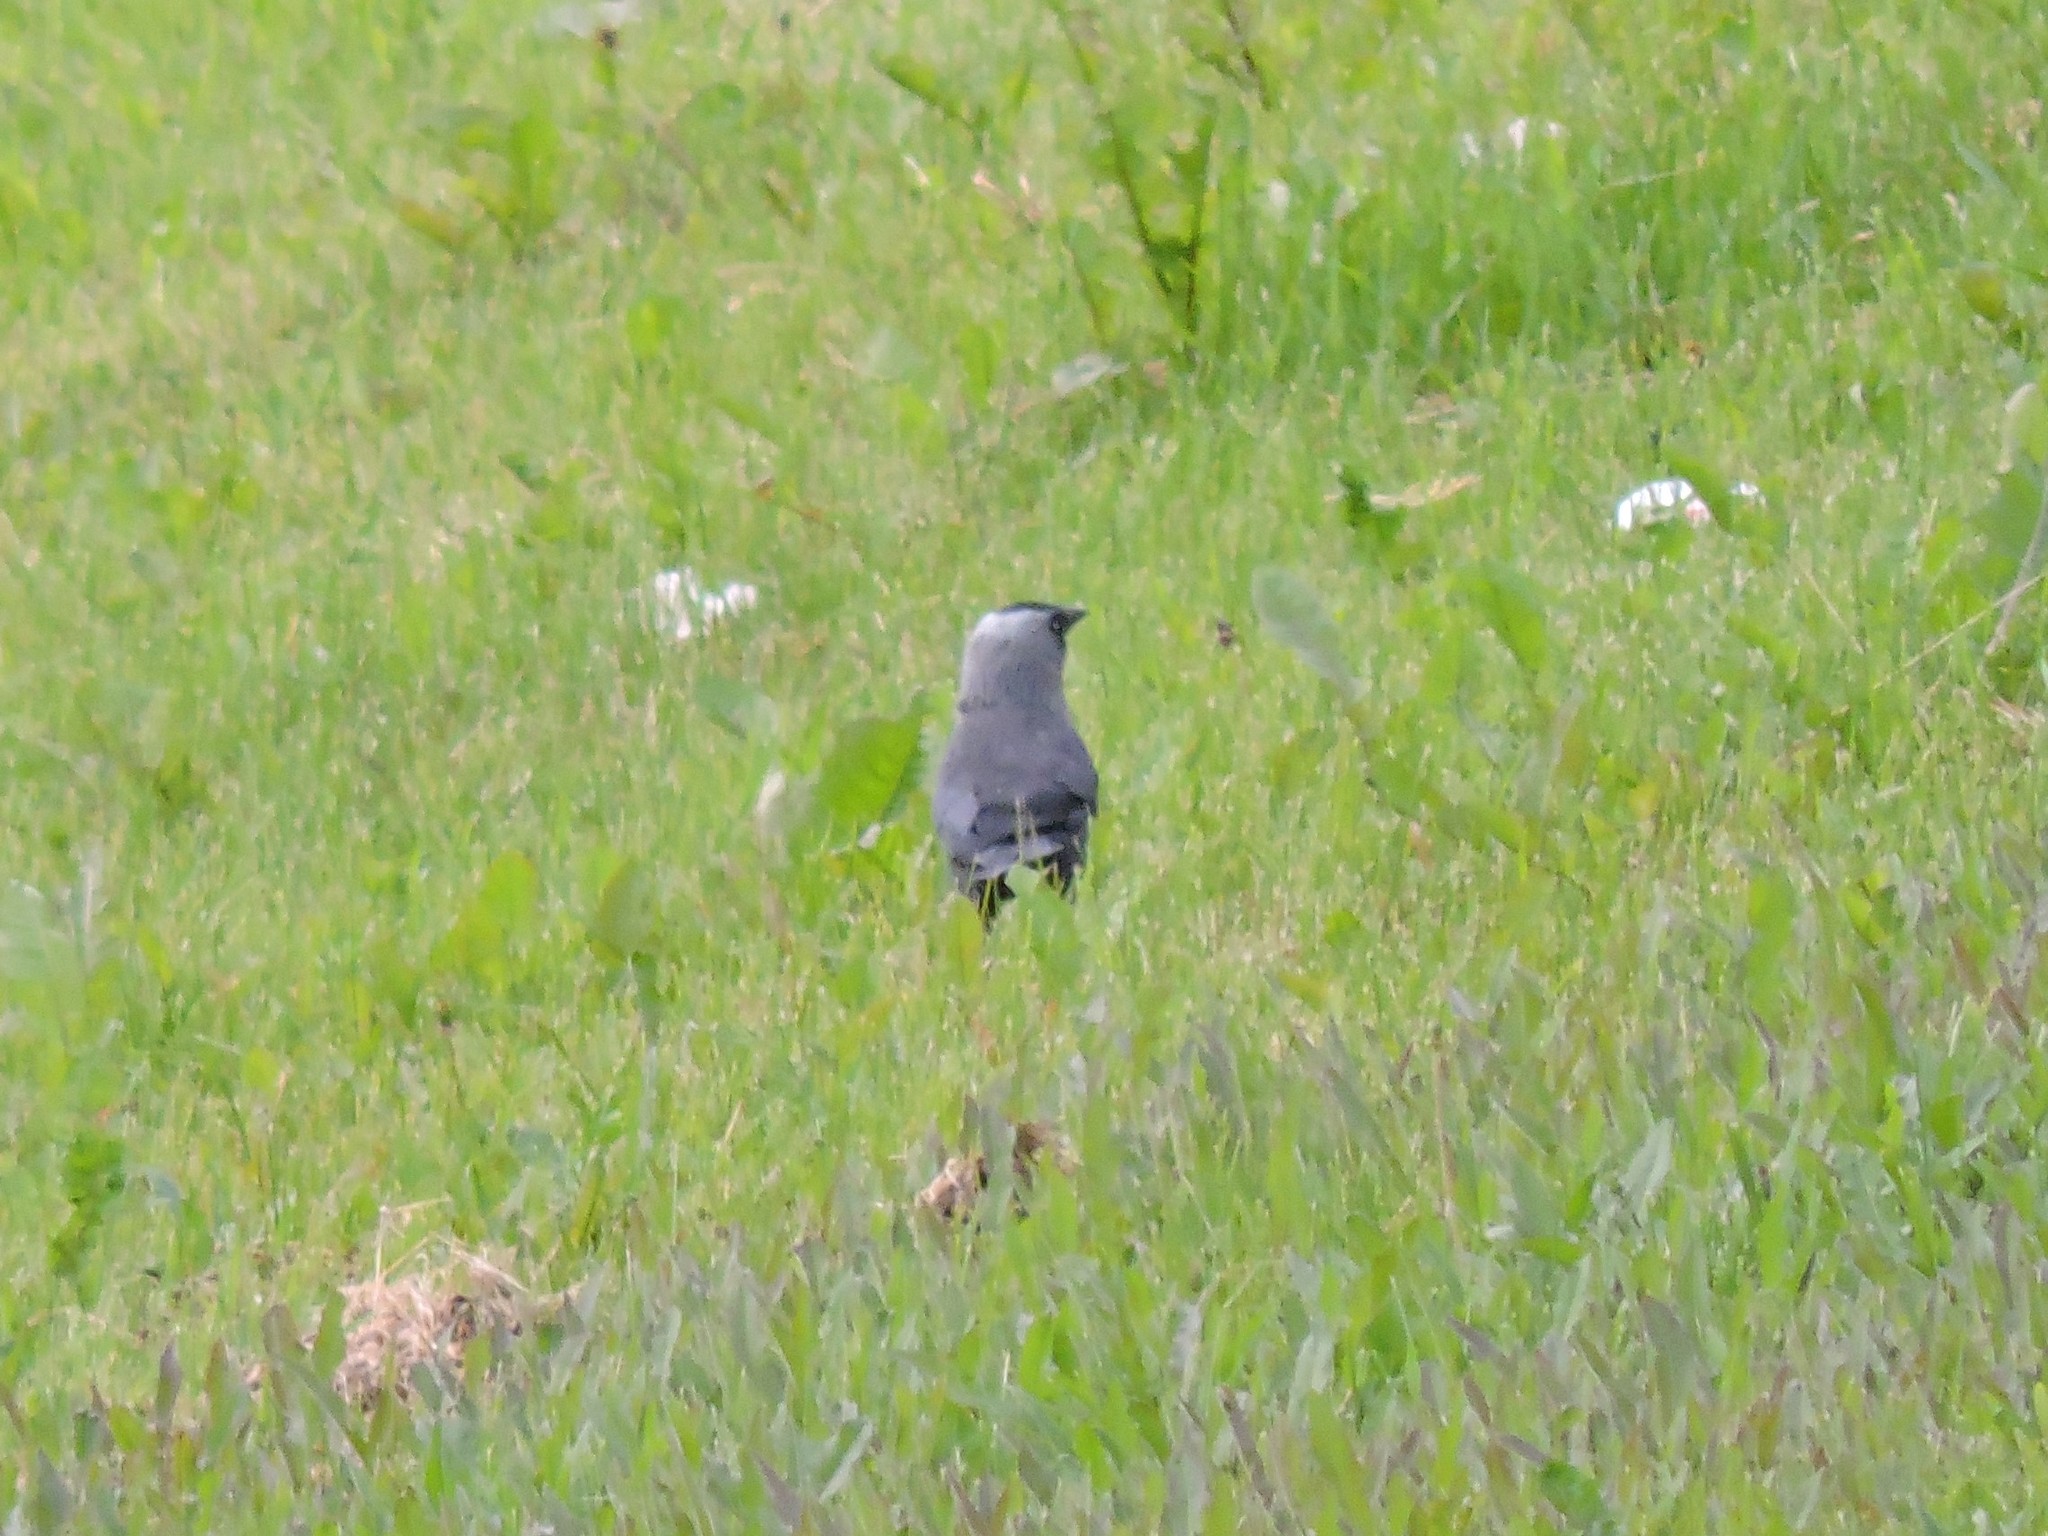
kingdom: Animalia
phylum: Chordata
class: Aves
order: Passeriformes
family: Corvidae
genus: Coloeus
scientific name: Coloeus monedula
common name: Western jackdaw
